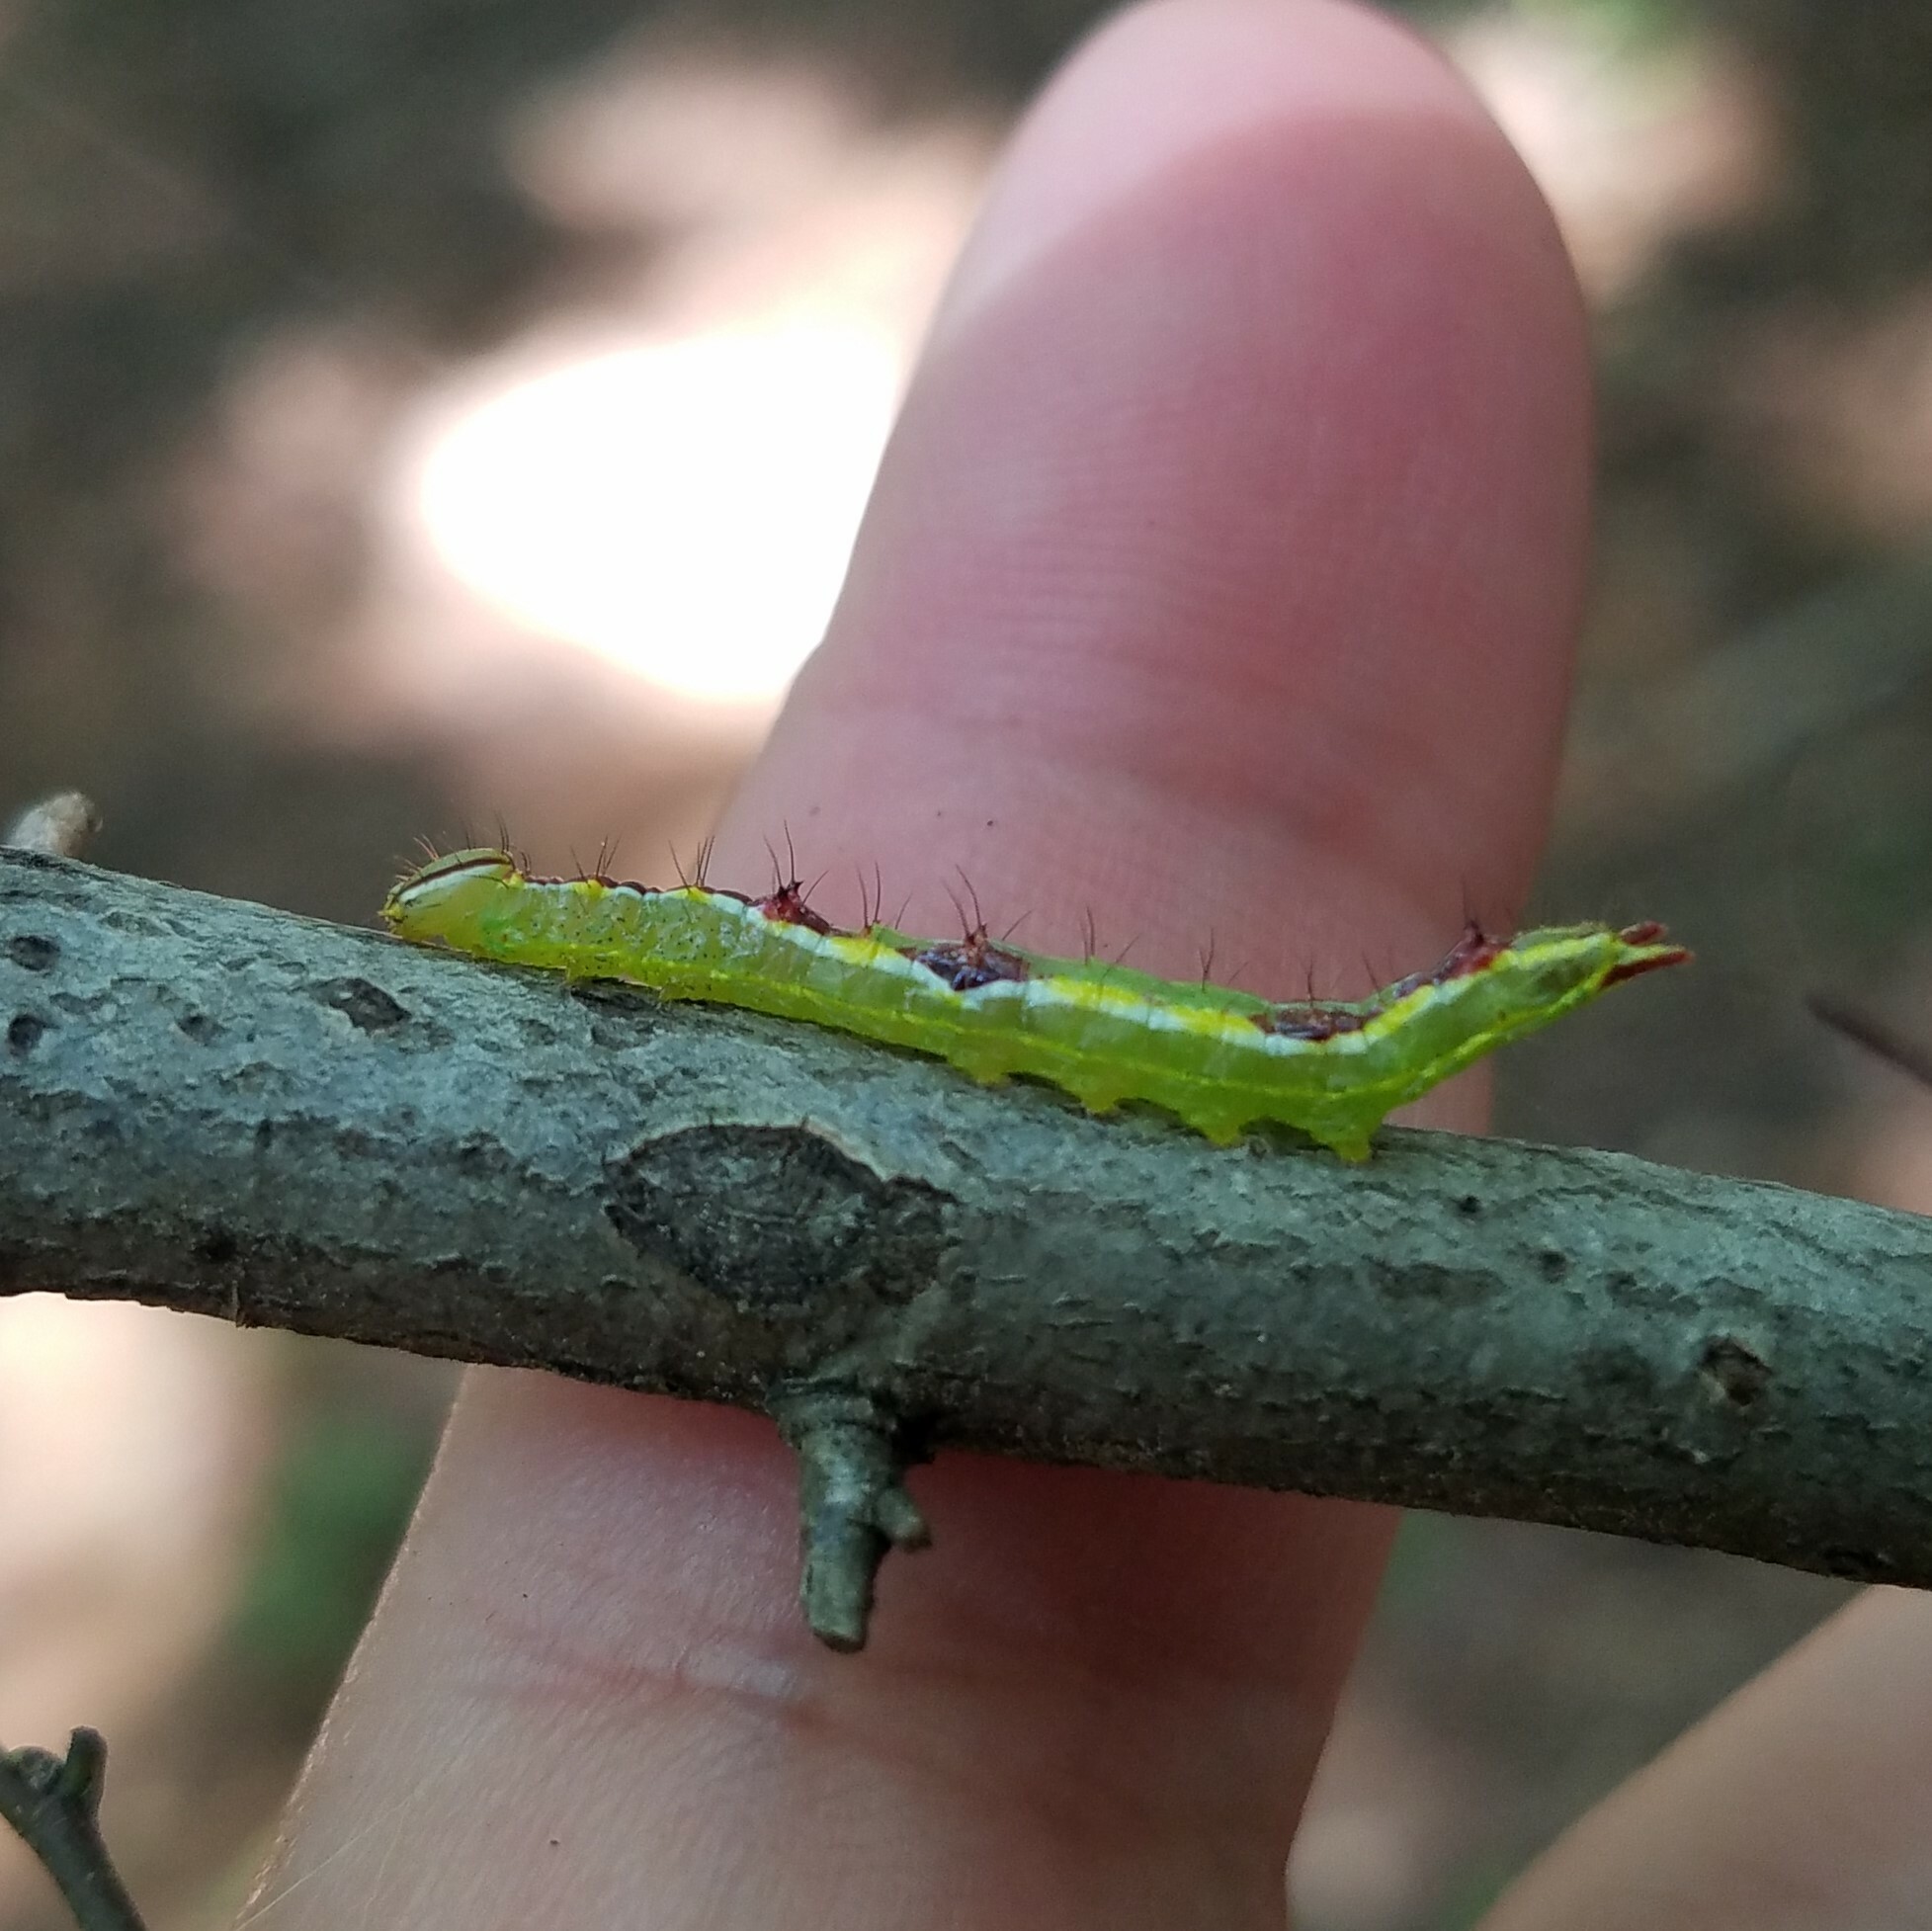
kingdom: Animalia
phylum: Arthropoda
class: Insecta
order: Lepidoptera
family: Notodontidae
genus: Lochmaeus
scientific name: Lochmaeus manteo
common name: Variable oakleaf caterpillar moth
